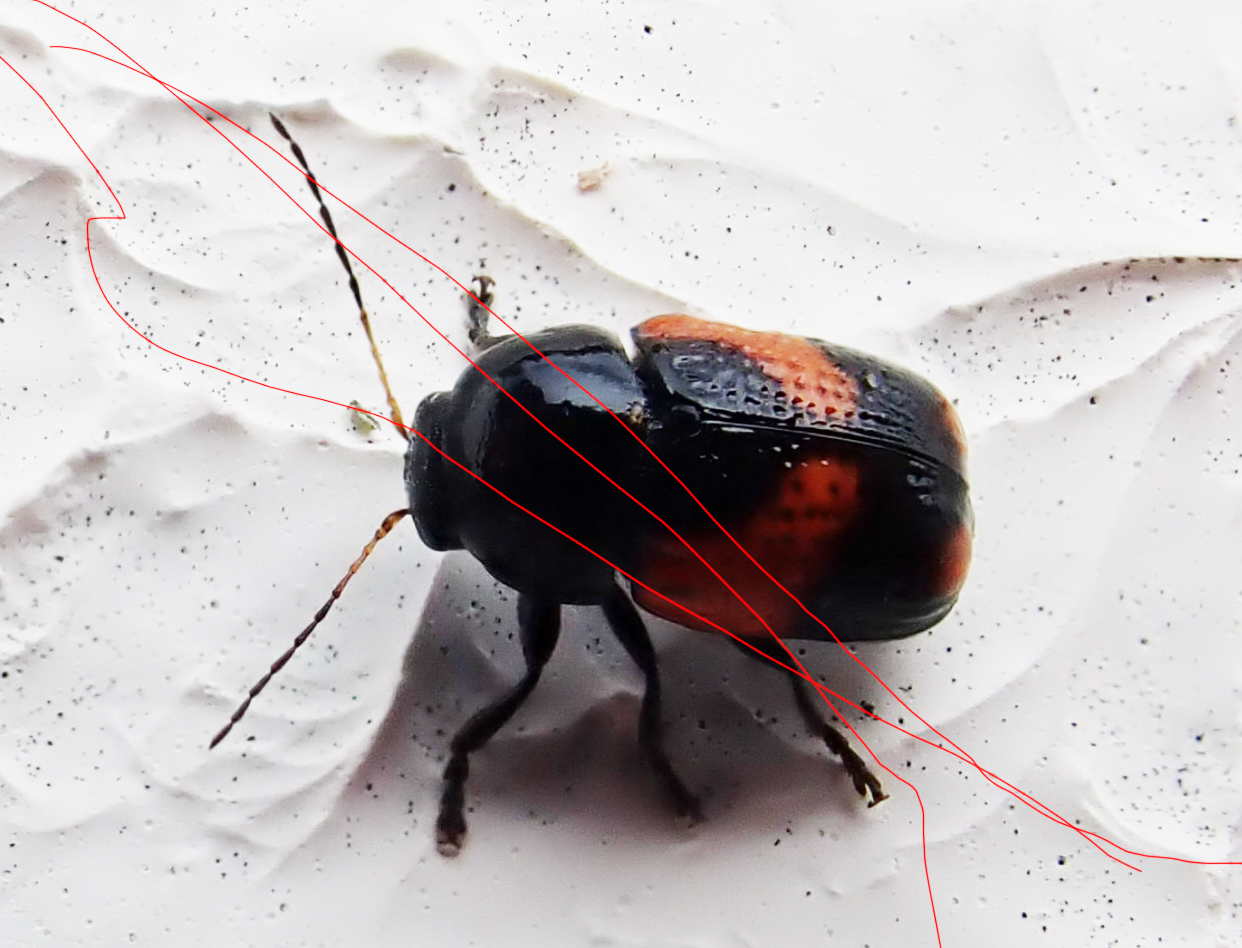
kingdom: Animalia
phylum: Arthropoda
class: Insecta
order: Coleoptera
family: Chrysomelidae
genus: Cryptocephalus
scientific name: Cryptocephalus binominis
